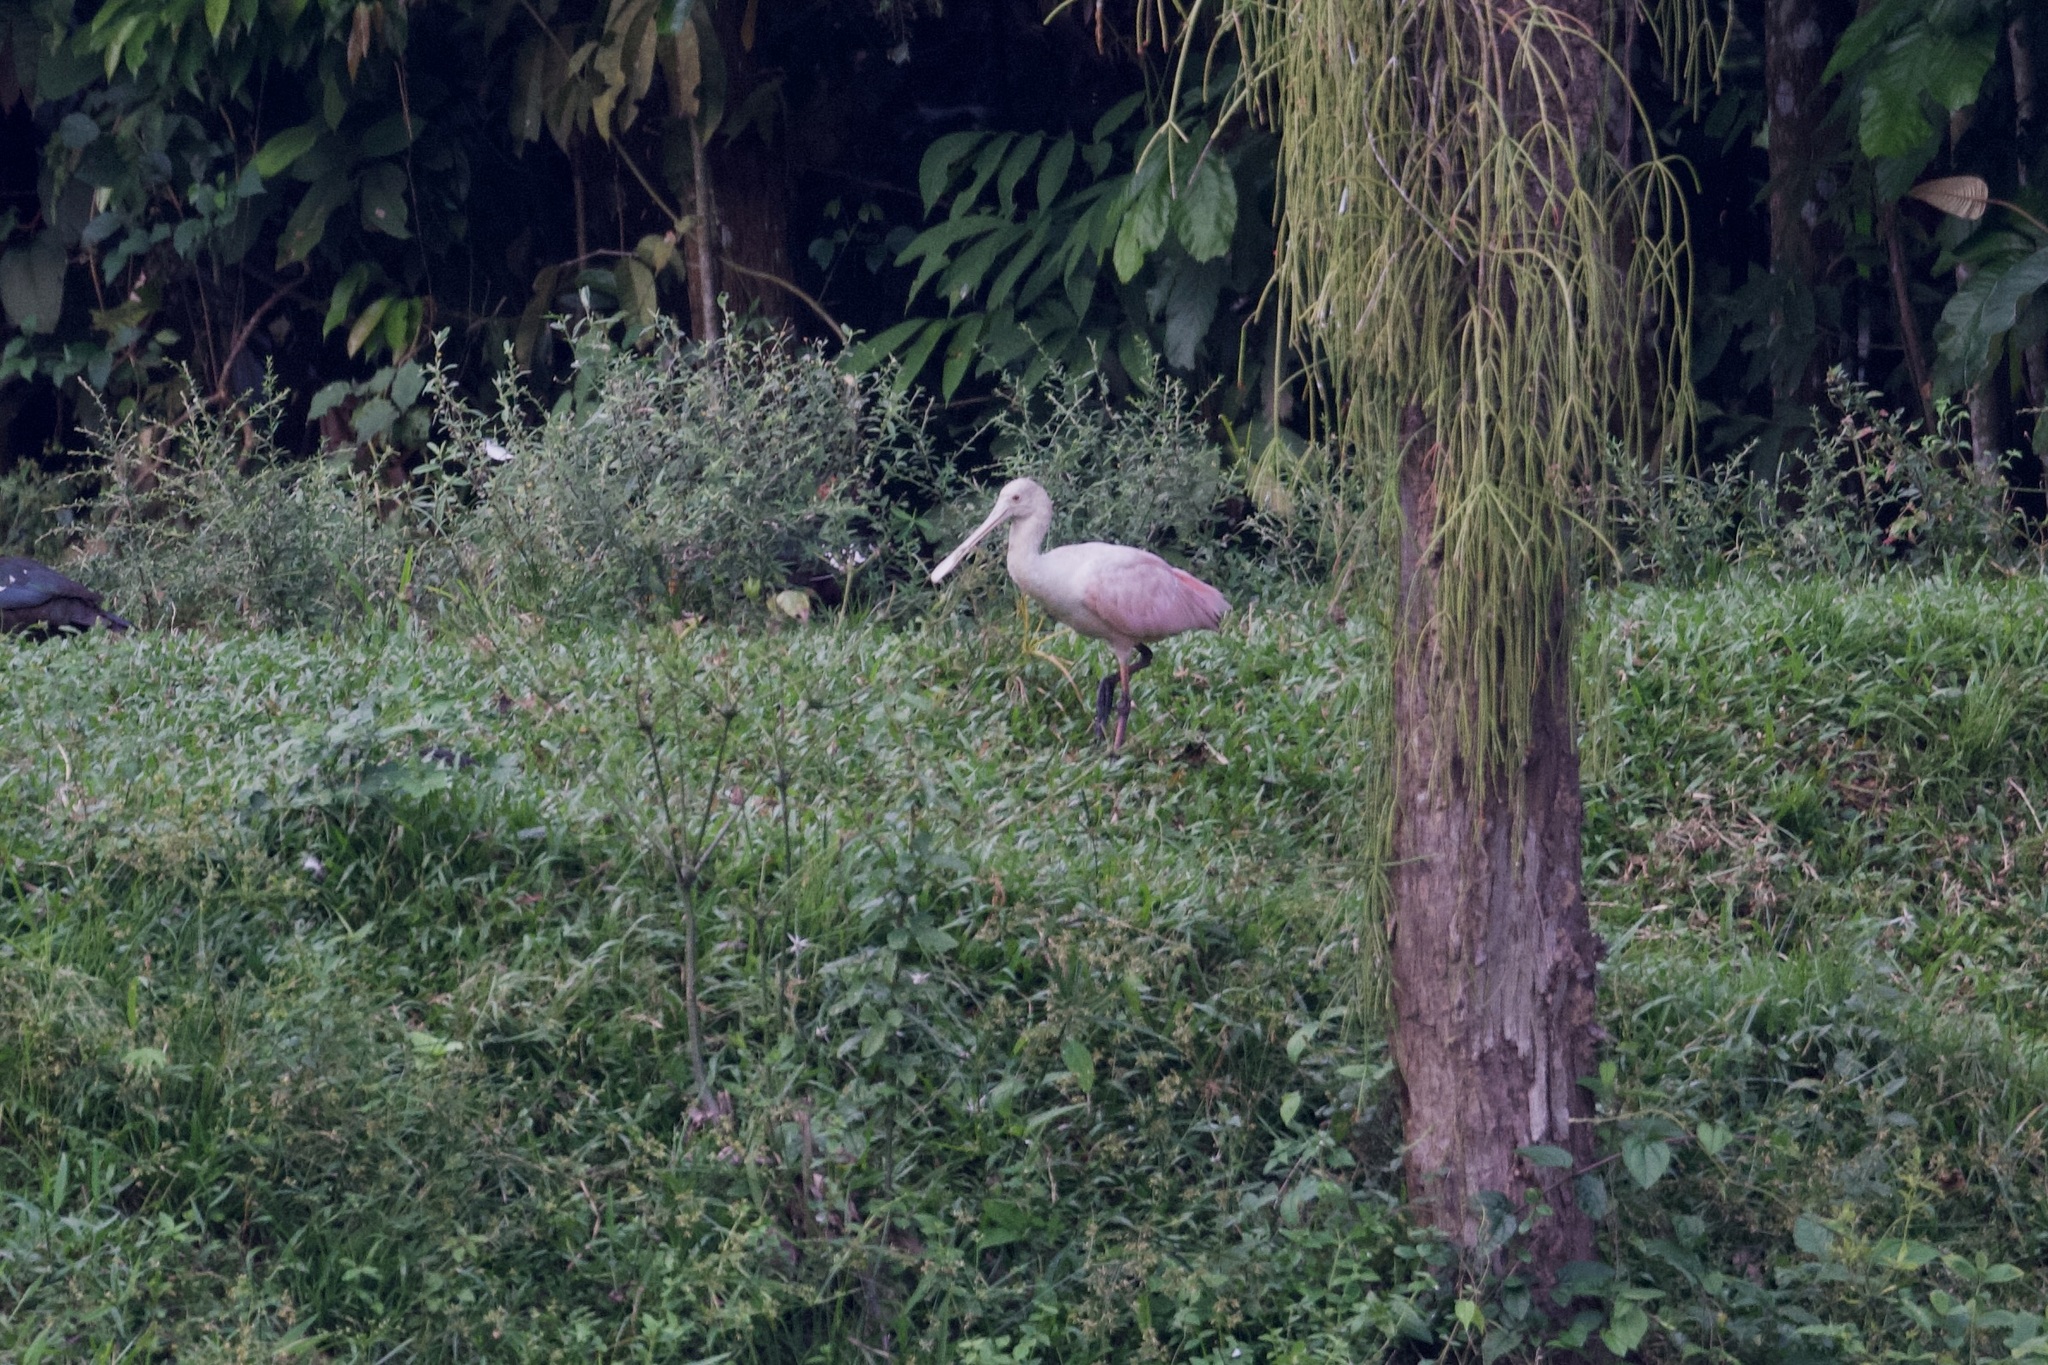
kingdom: Animalia
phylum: Chordata
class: Aves
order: Pelecaniformes
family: Threskiornithidae
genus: Platalea
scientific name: Platalea ajaja
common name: Roseate spoonbill
